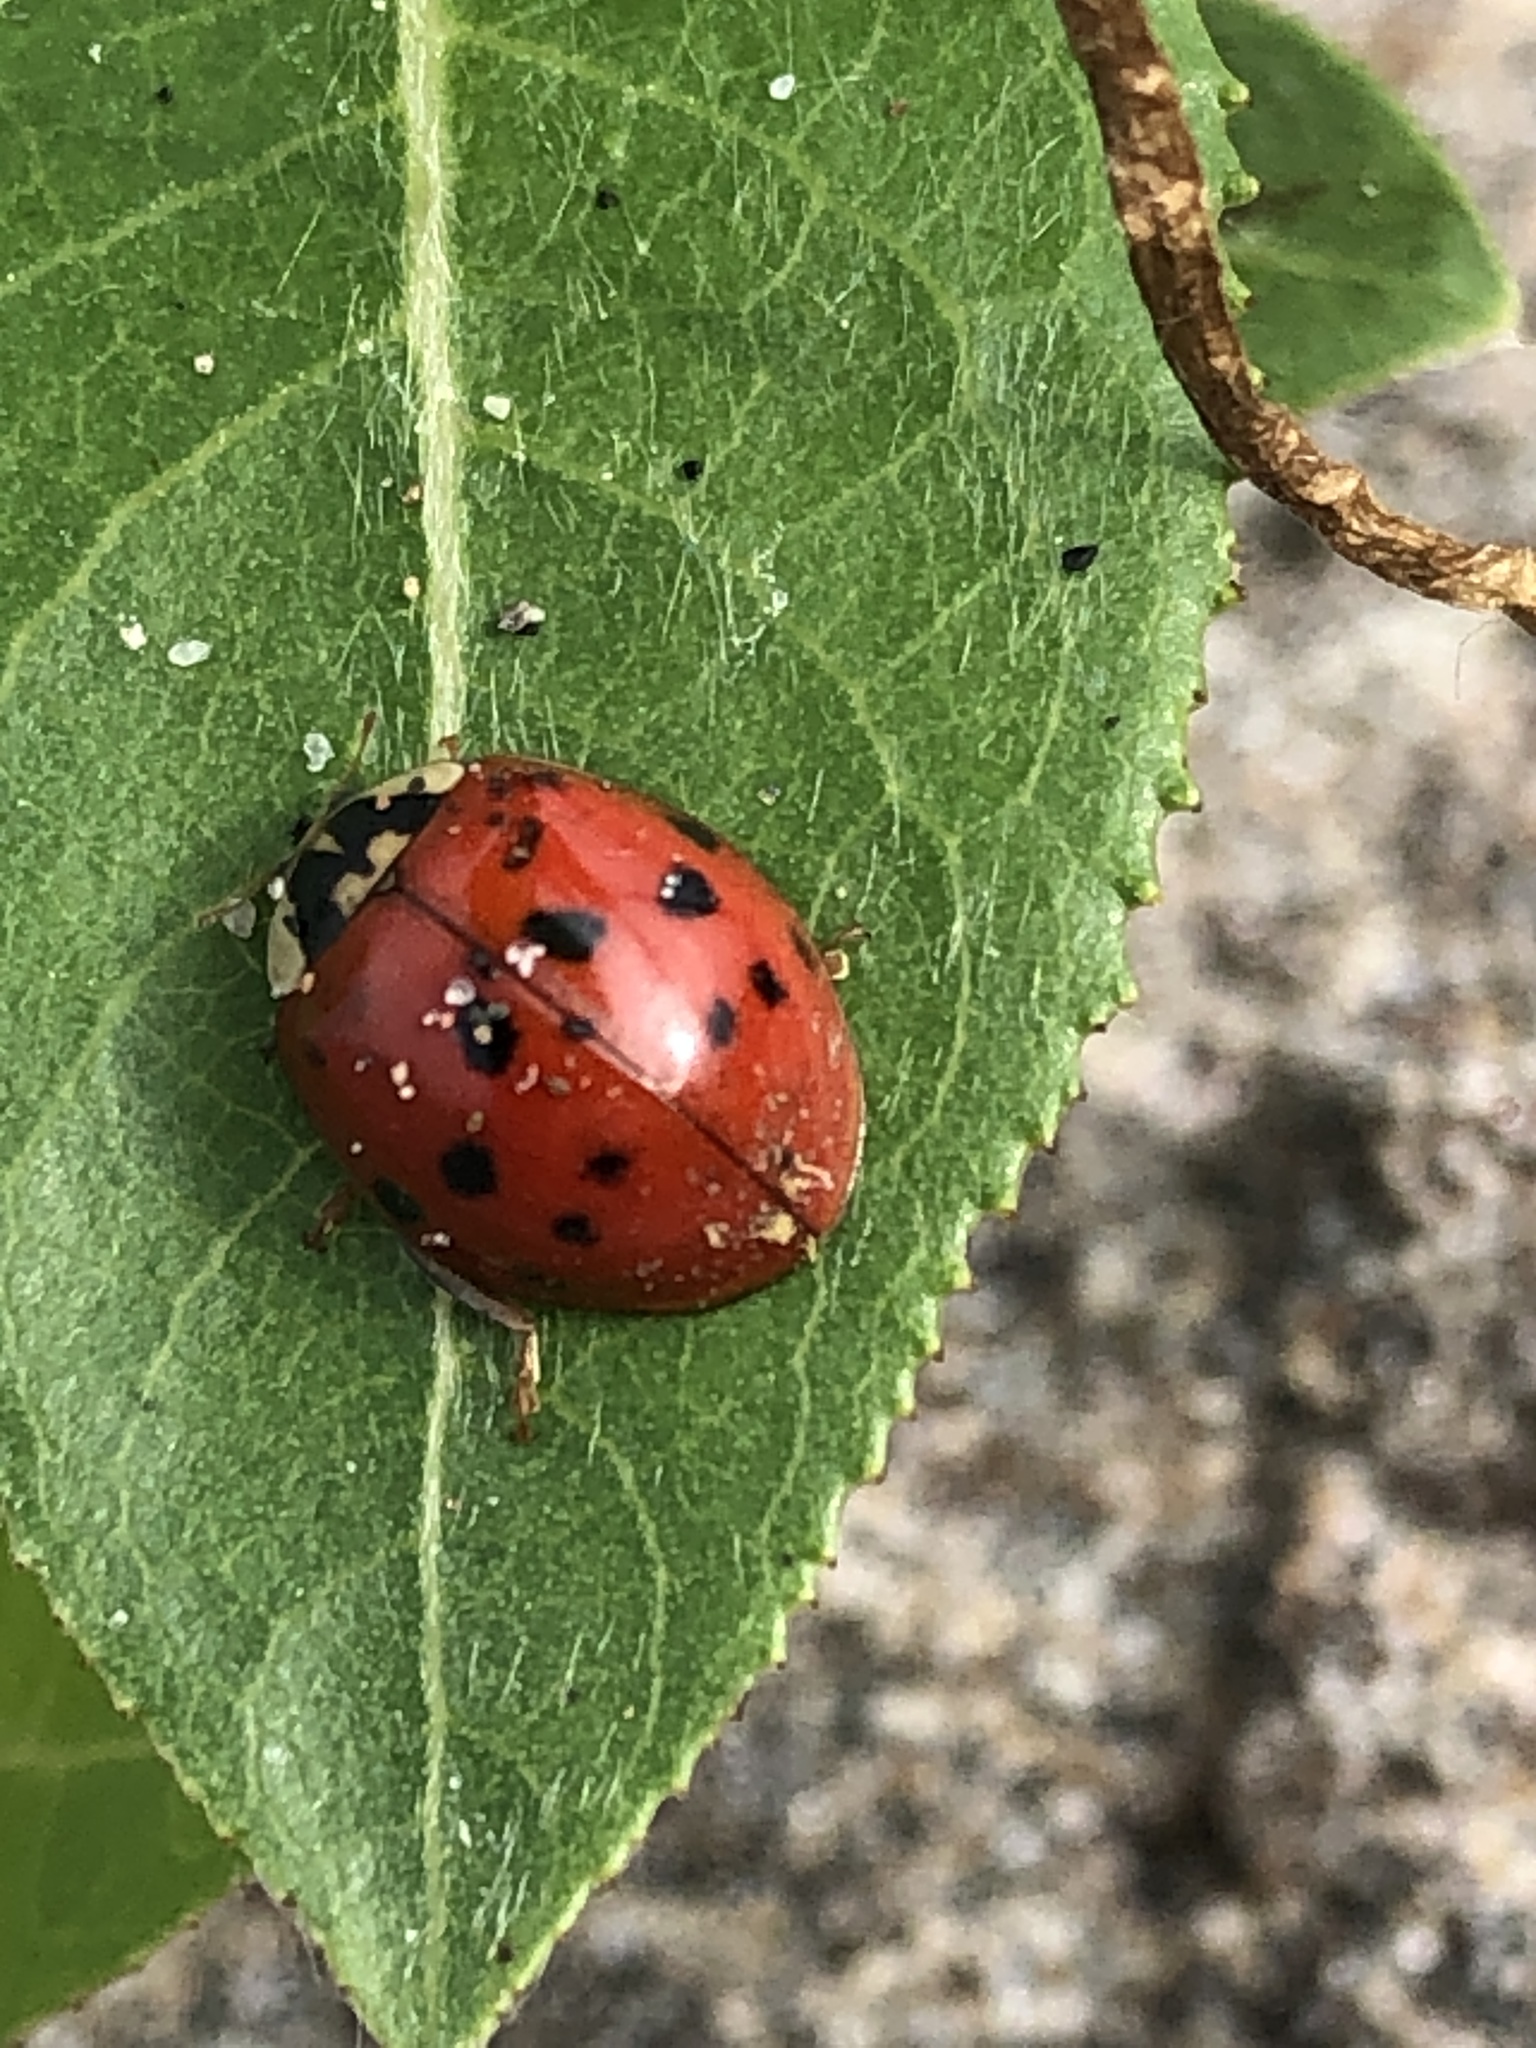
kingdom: Animalia
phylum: Arthropoda
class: Insecta
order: Coleoptera
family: Coccinellidae
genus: Harmonia
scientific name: Harmonia axyridis
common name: Harlequin ladybird
